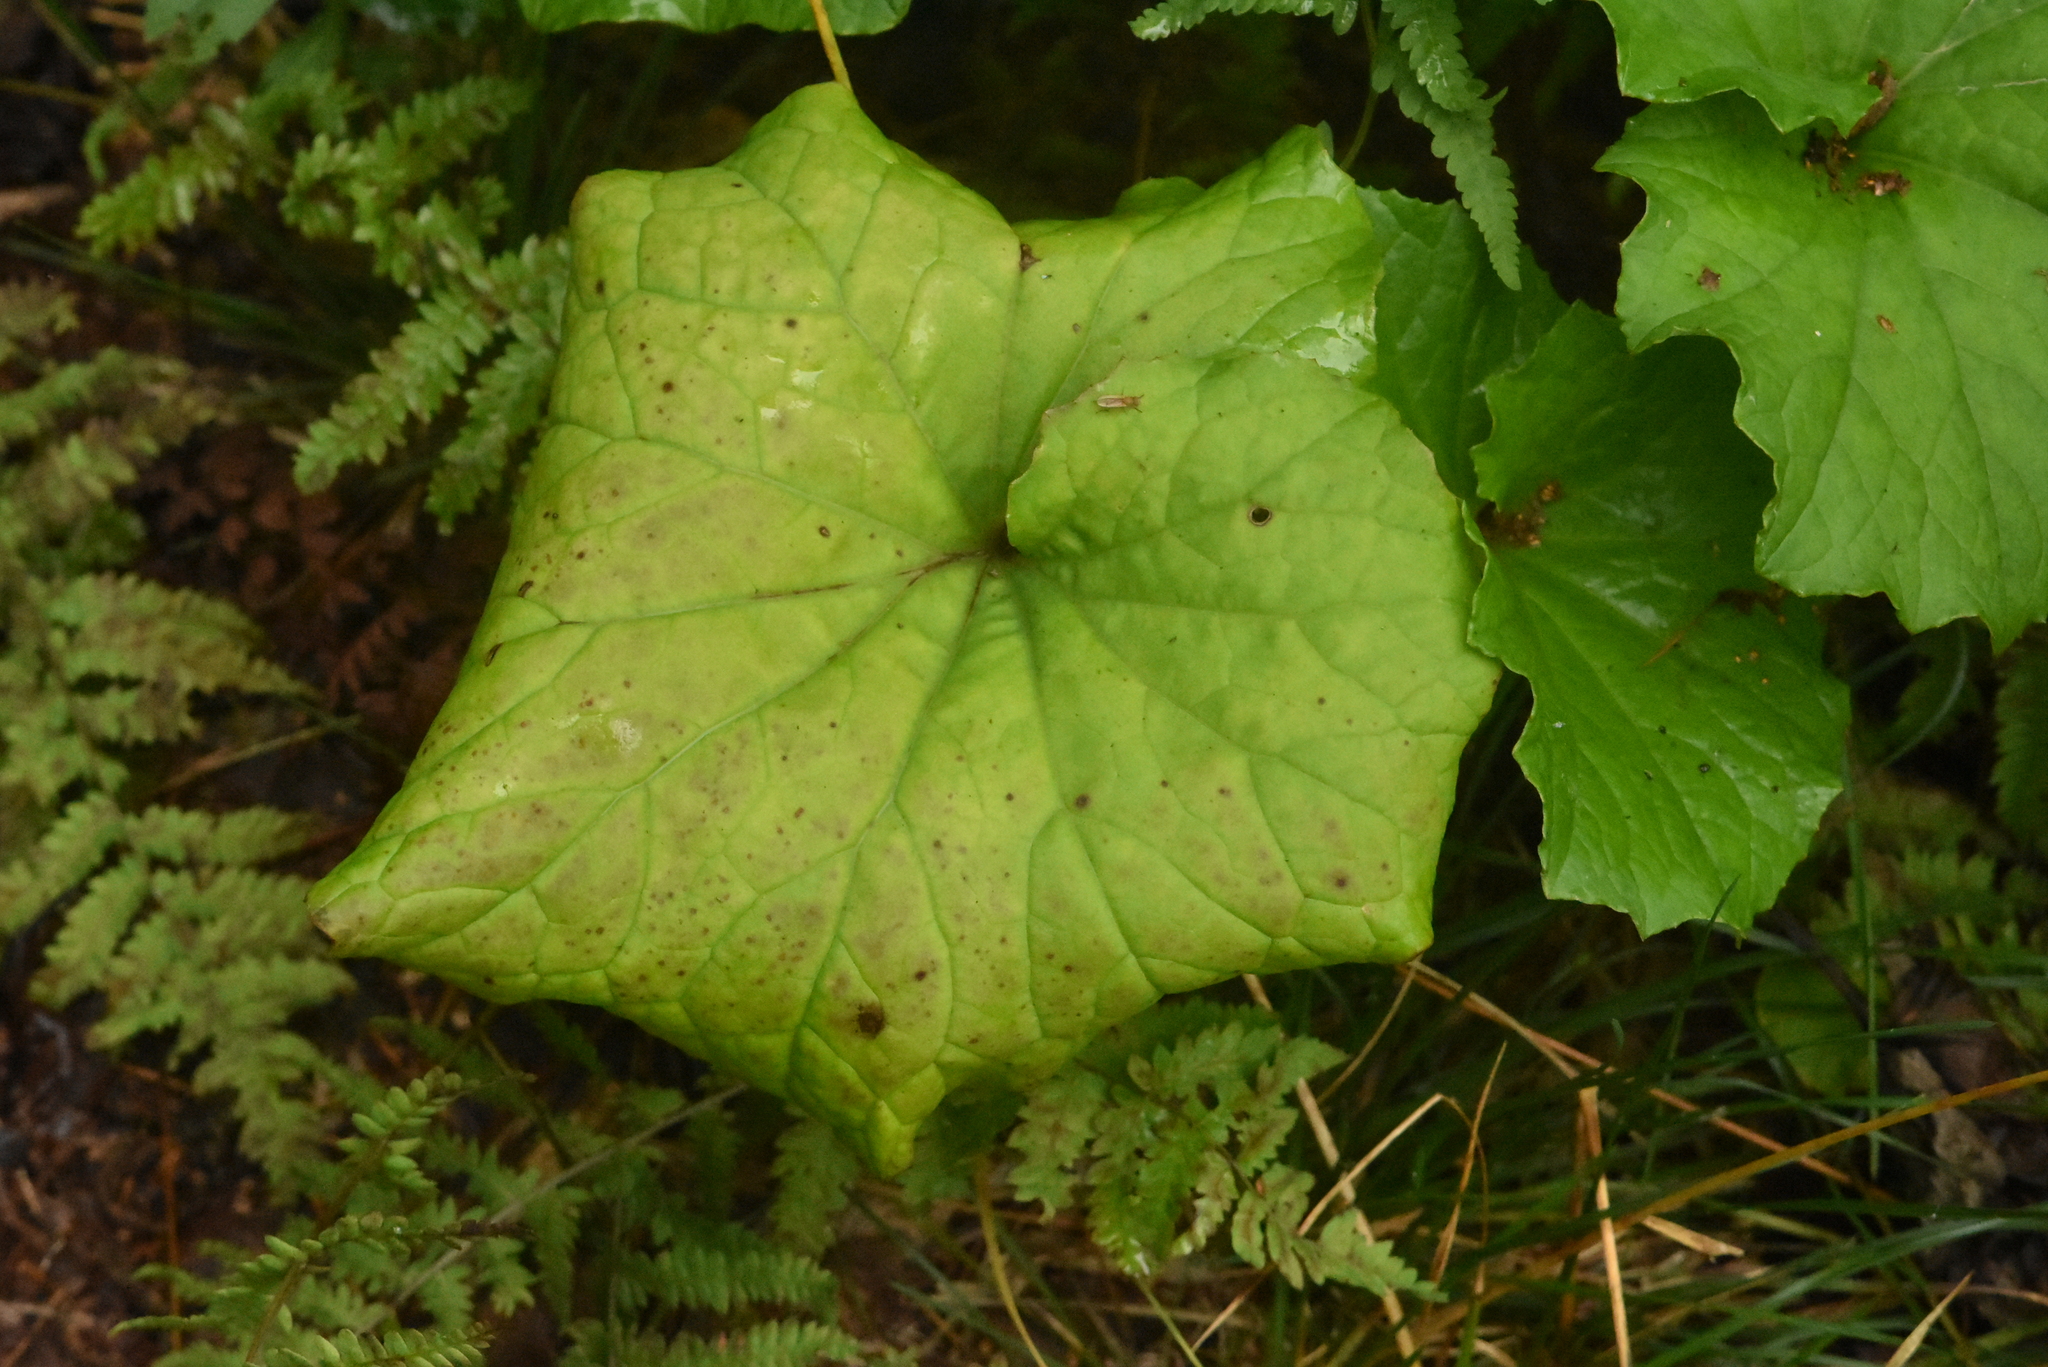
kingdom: Plantae
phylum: Tracheophyta
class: Magnoliopsida
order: Asterales
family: Asteraceae
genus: Tussilago
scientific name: Tussilago farfara
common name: Coltsfoot
